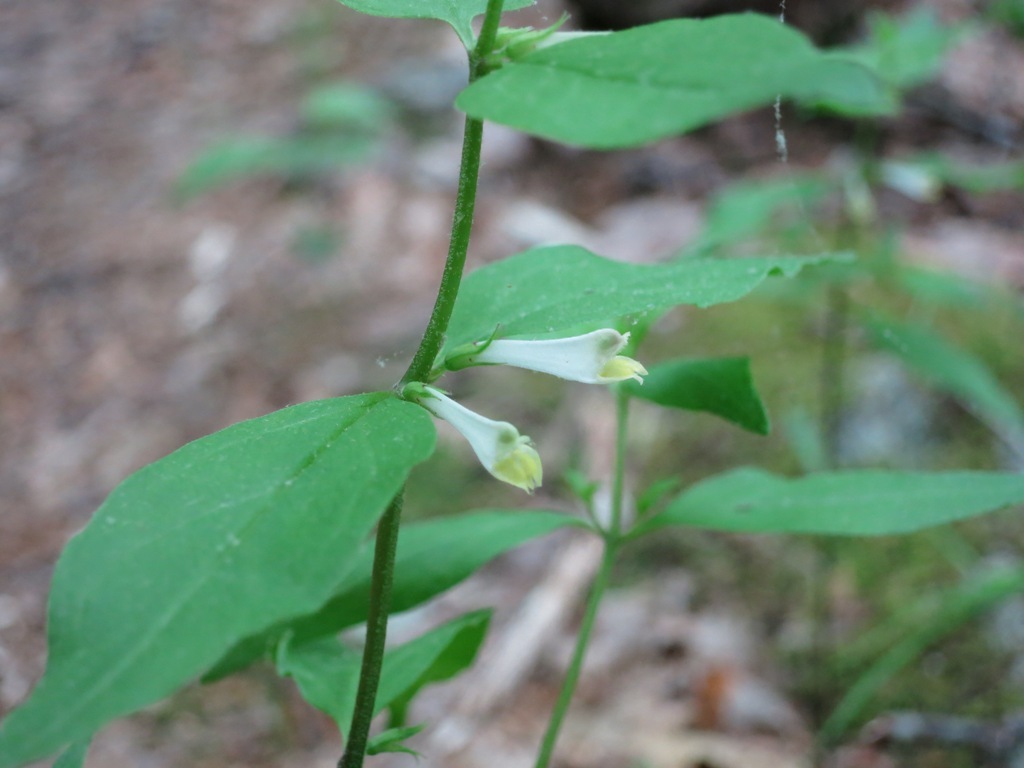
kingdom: Plantae
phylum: Tracheophyta
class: Magnoliopsida
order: Lamiales
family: Orobanchaceae
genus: Melampyrum
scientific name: Melampyrum lineare
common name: American cow-wheat
